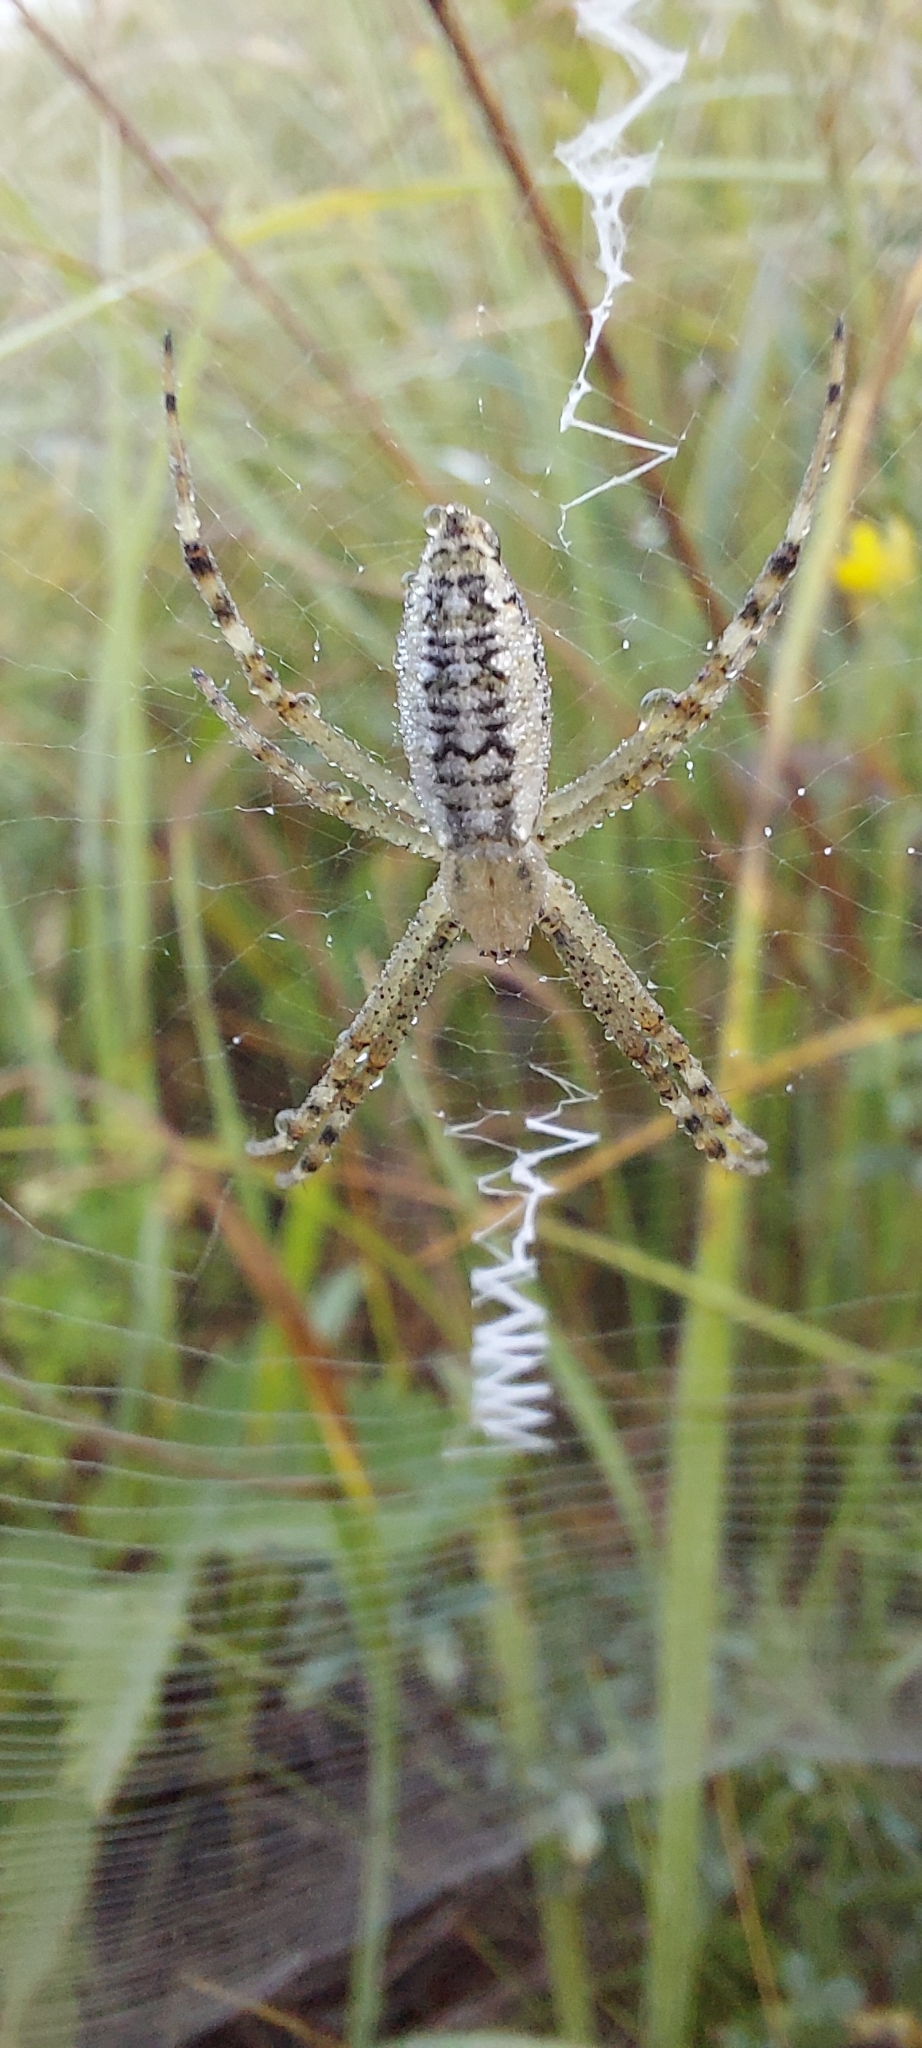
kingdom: Animalia
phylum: Arthropoda
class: Arachnida
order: Araneae
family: Araneidae
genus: Argiope
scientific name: Argiope bruennichi
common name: Wasp spider
